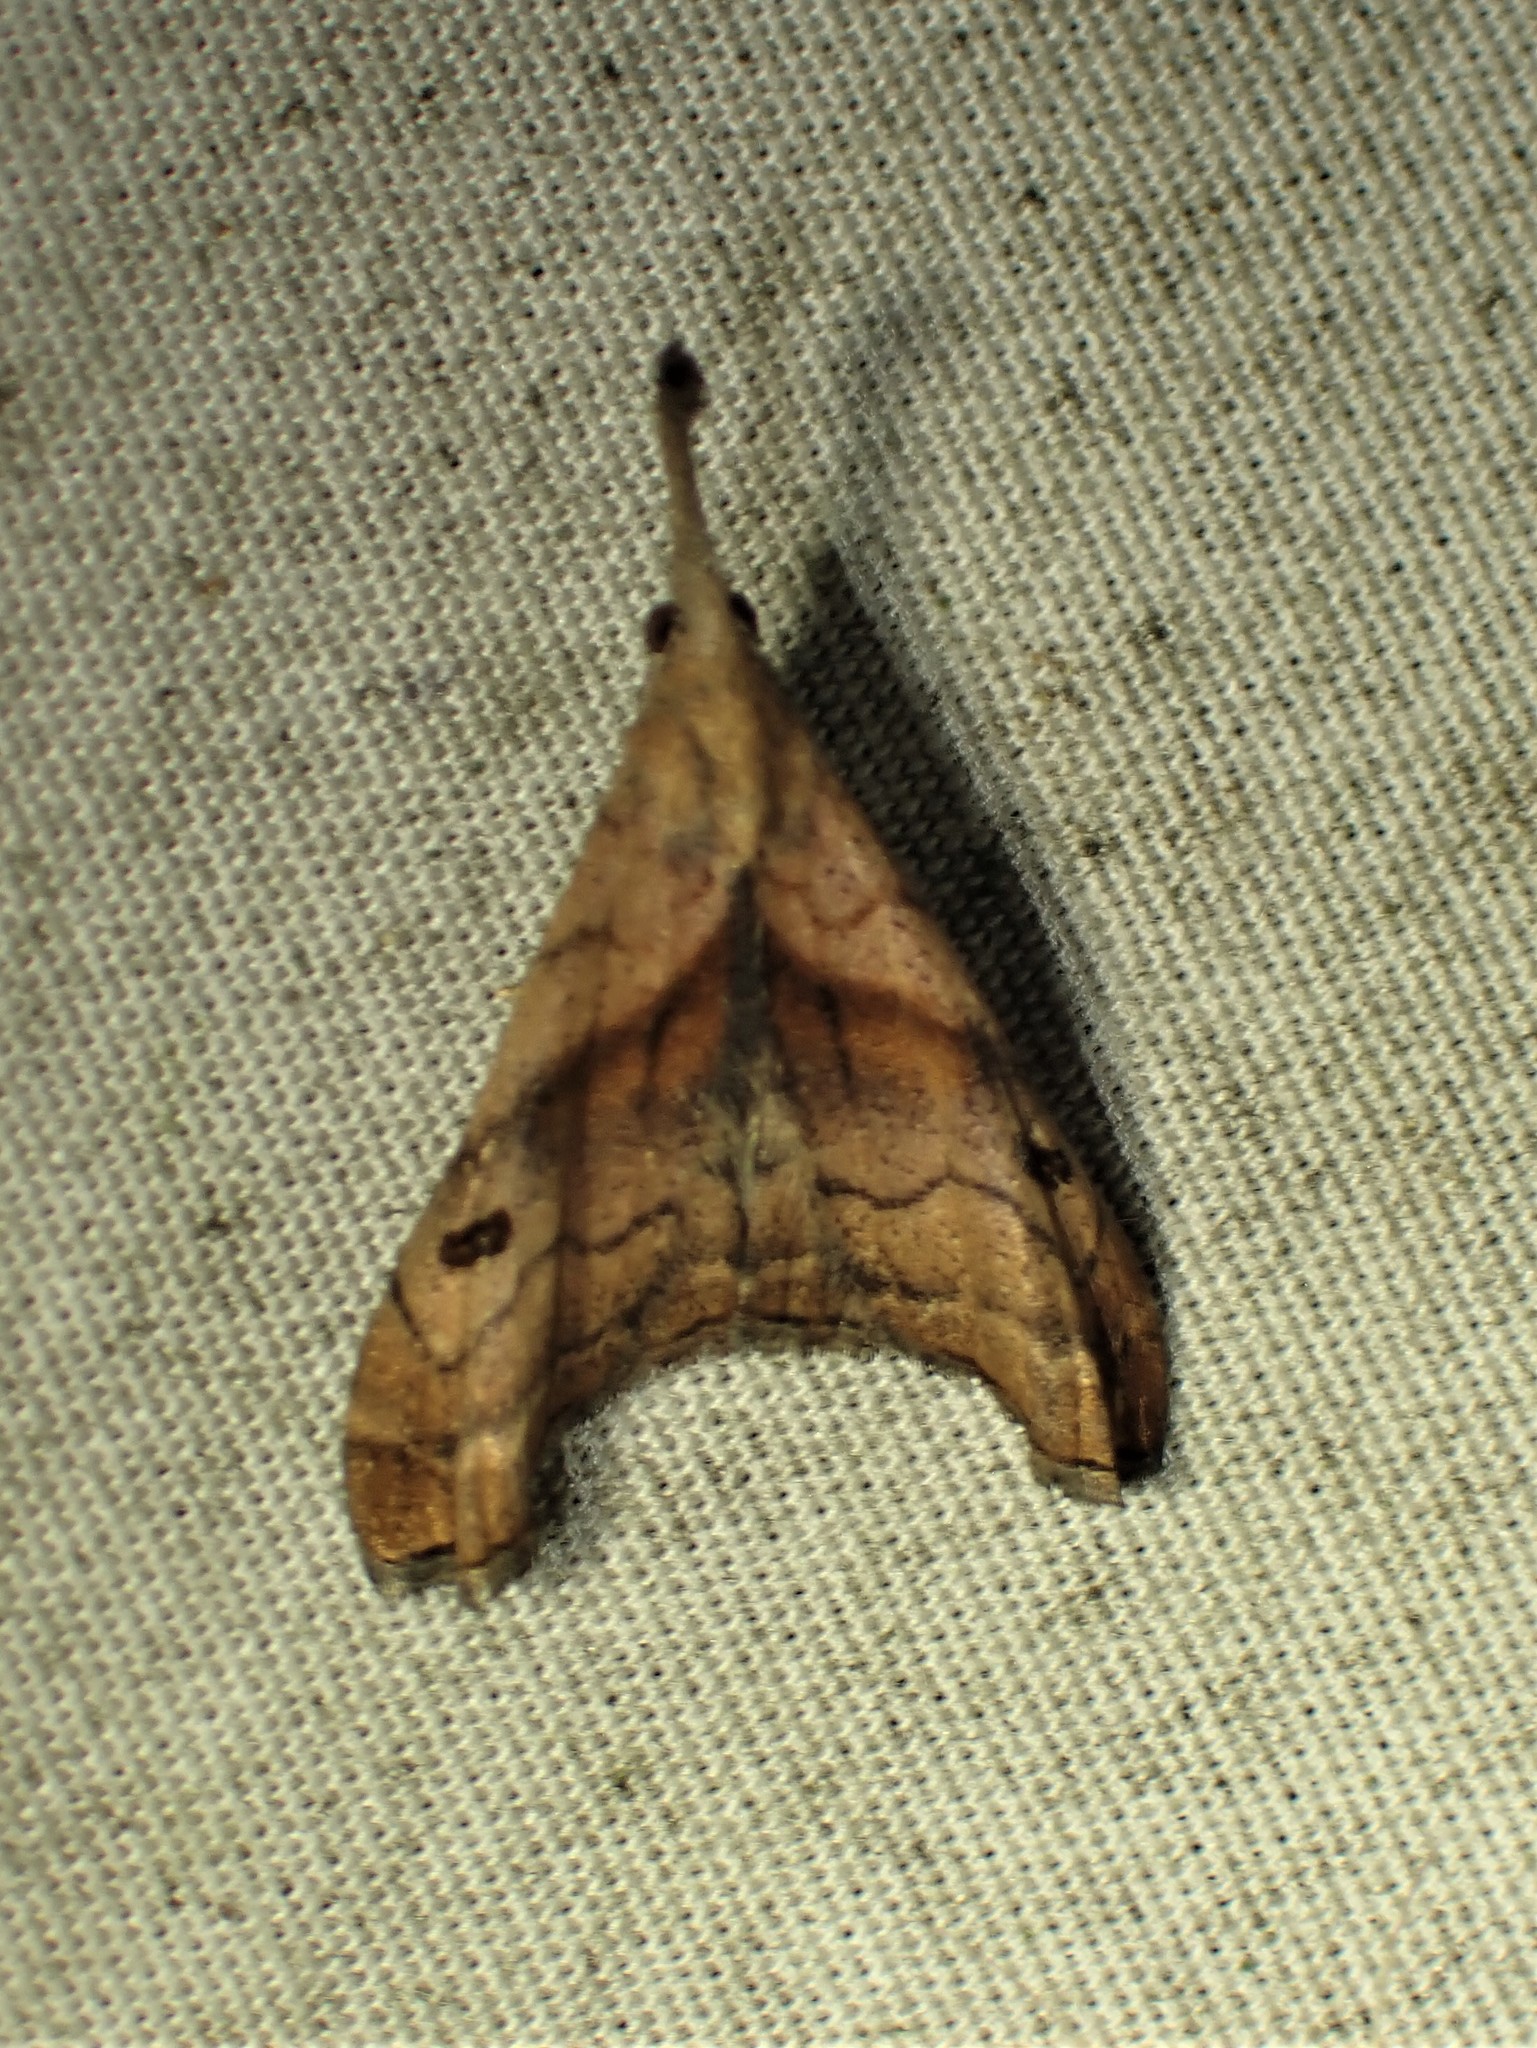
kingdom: Animalia
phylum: Arthropoda
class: Insecta
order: Lepidoptera
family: Erebidae
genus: Palthis
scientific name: Palthis angulalis
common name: Dark-spotted palthis moth
